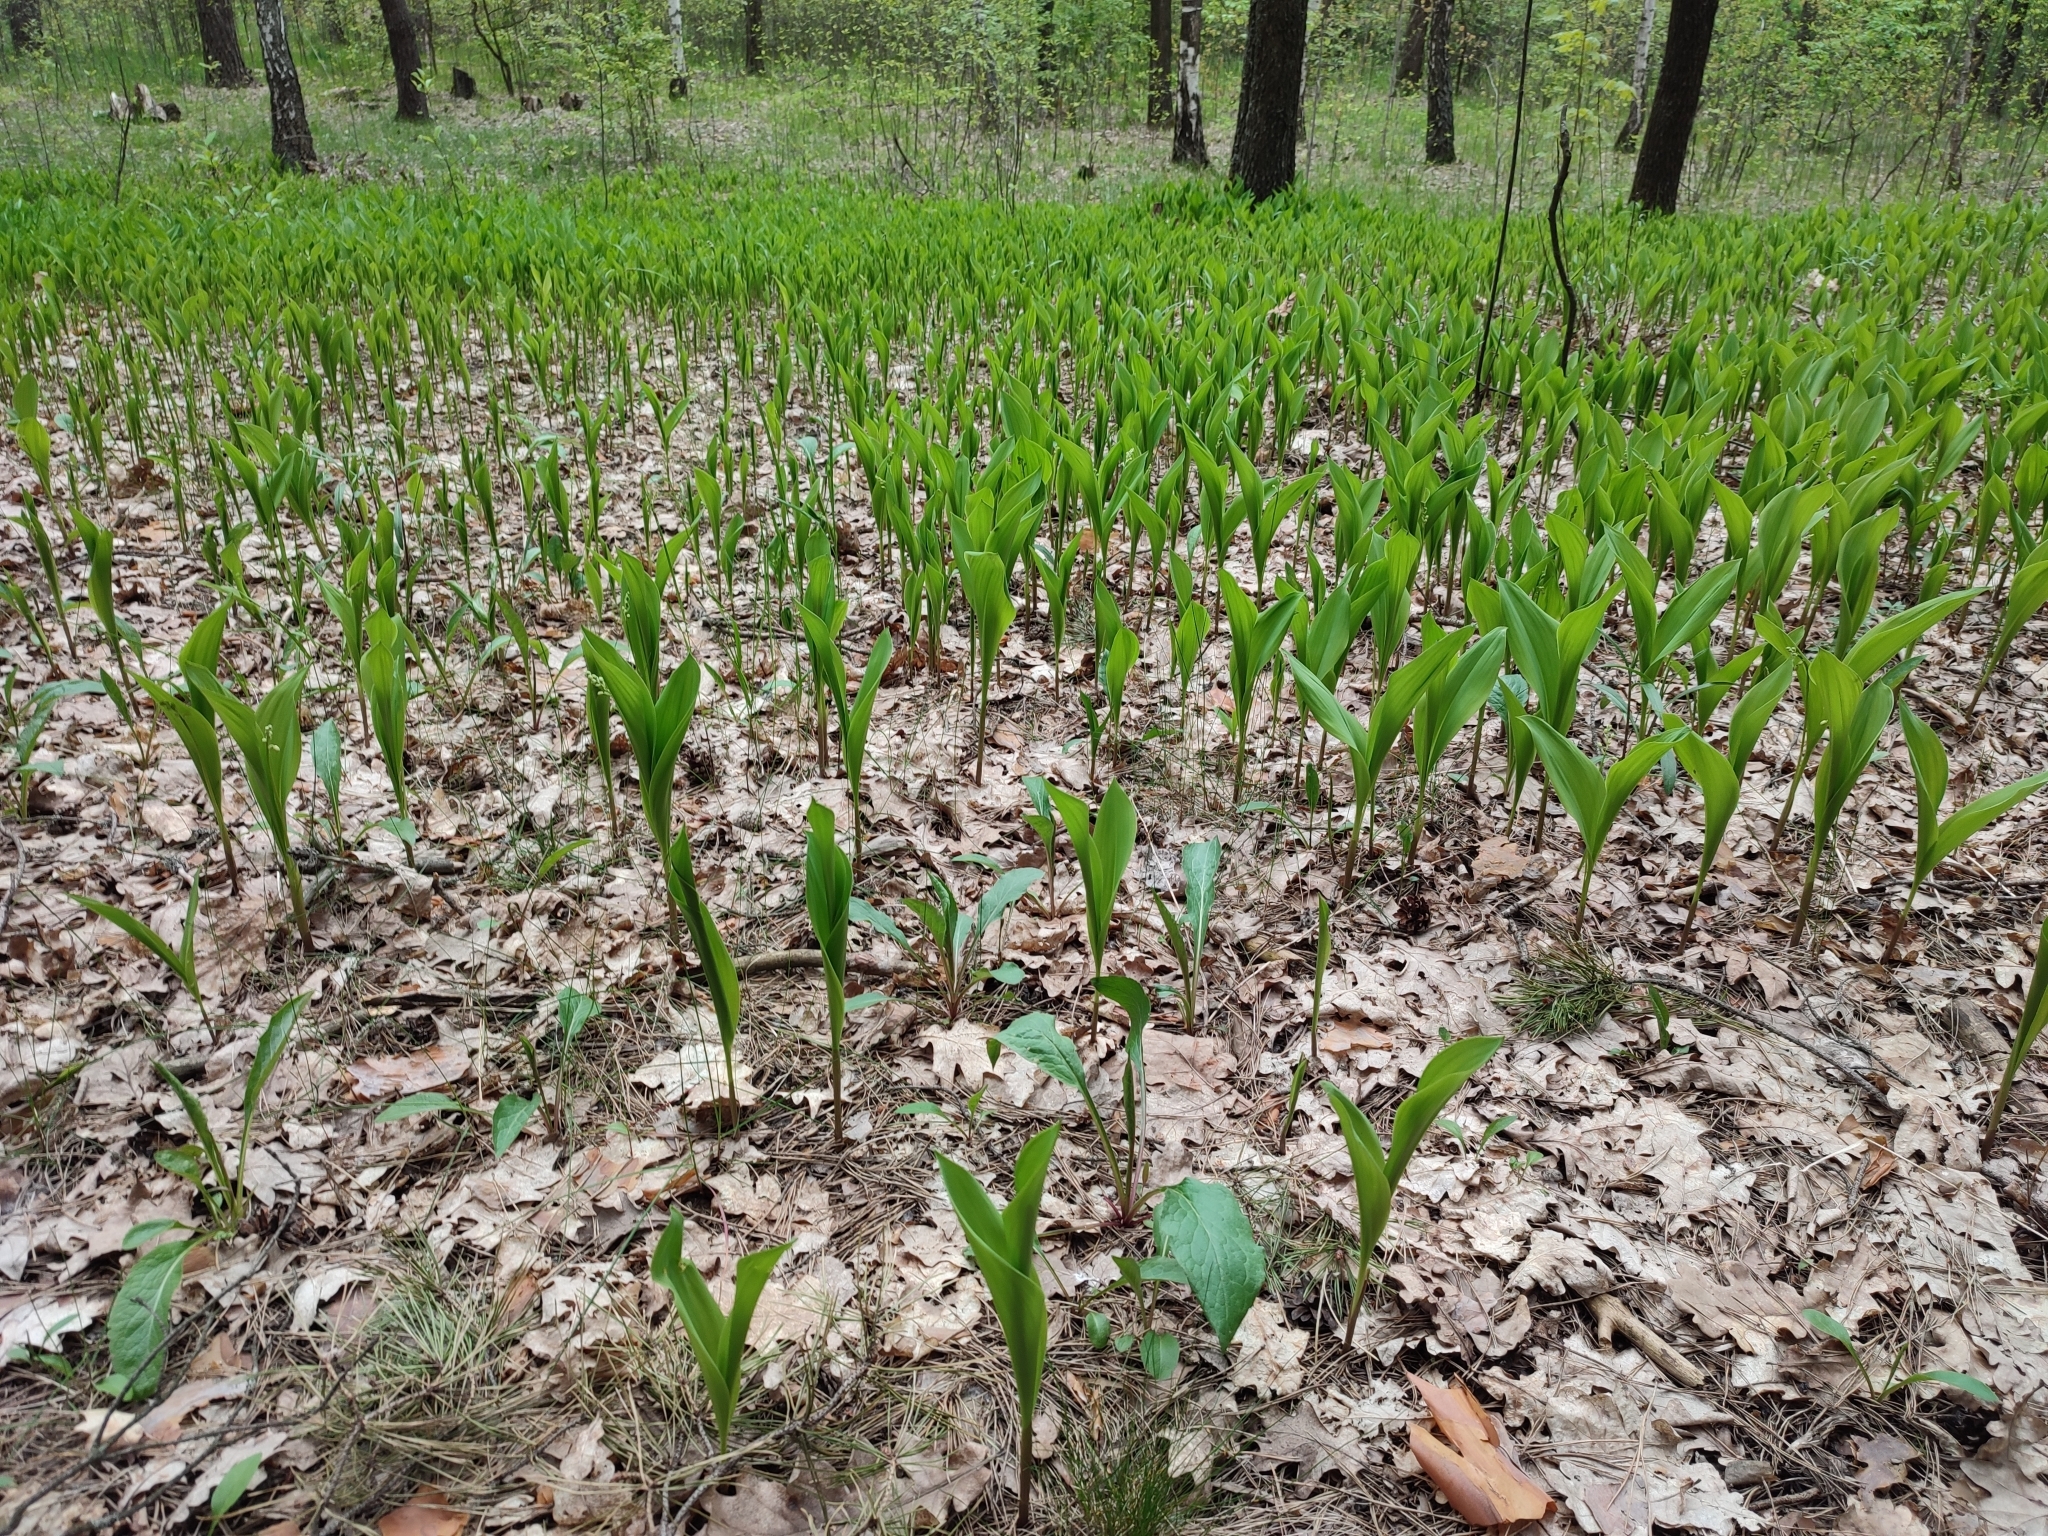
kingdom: Plantae
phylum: Tracheophyta
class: Liliopsida
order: Asparagales
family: Asparagaceae
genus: Convallaria
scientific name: Convallaria majalis
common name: Lily-of-the-valley
